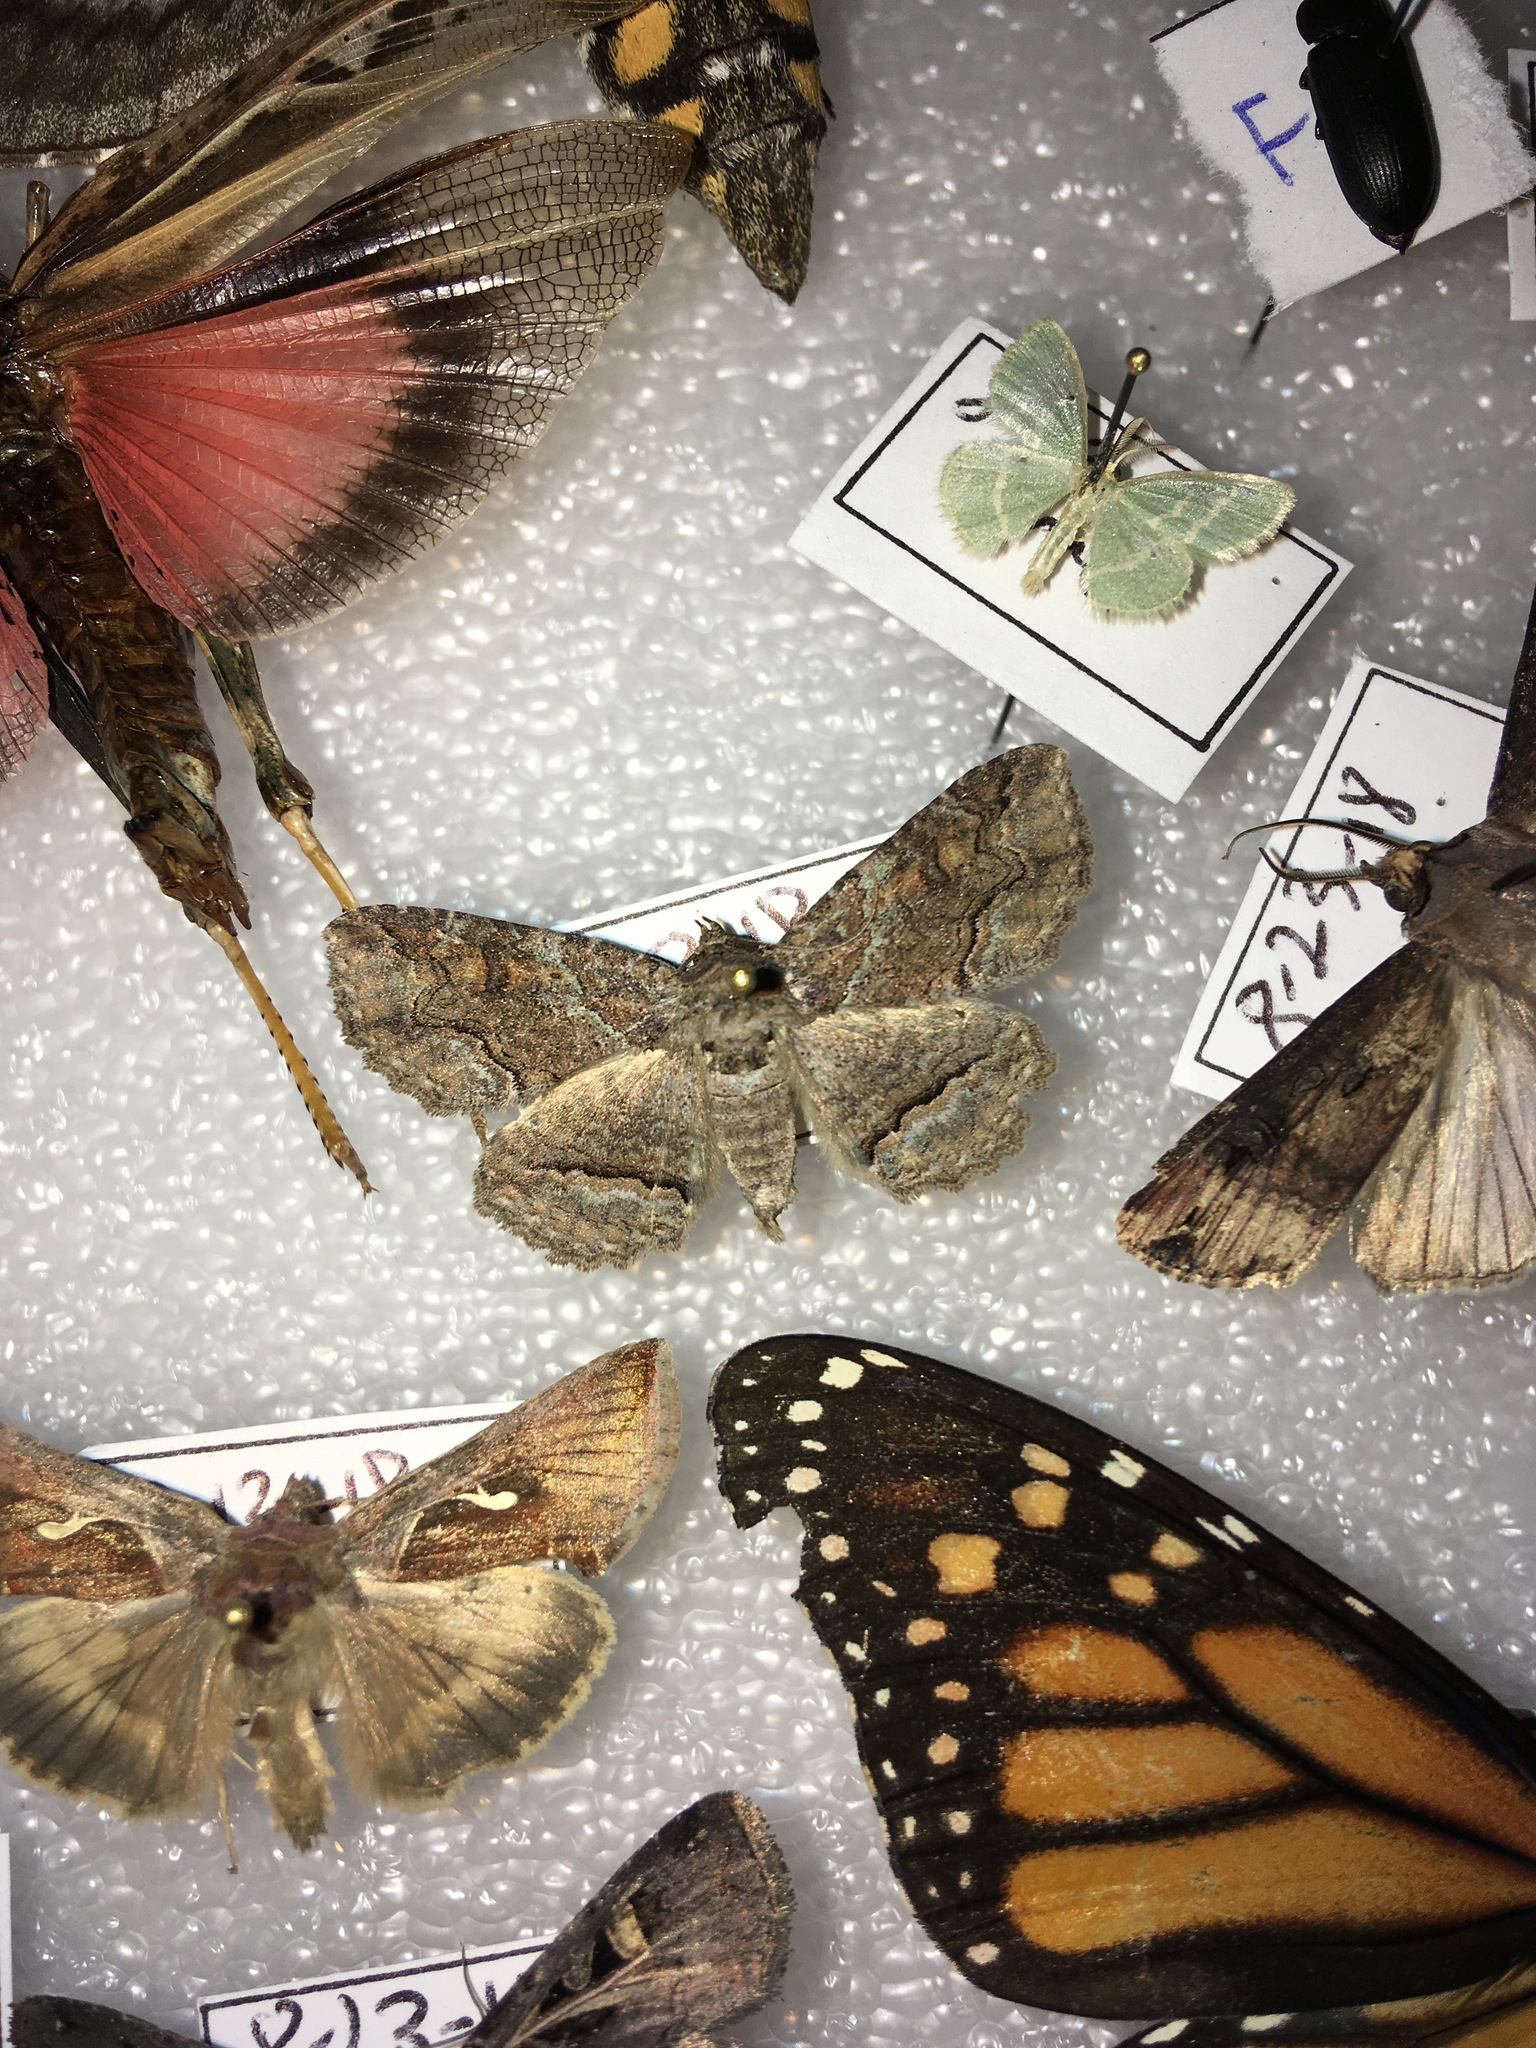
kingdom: Animalia
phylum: Arthropoda
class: Insecta
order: Lepidoptera
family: Erebidae
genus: Zale
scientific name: Zale galbanata
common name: Maple zale
